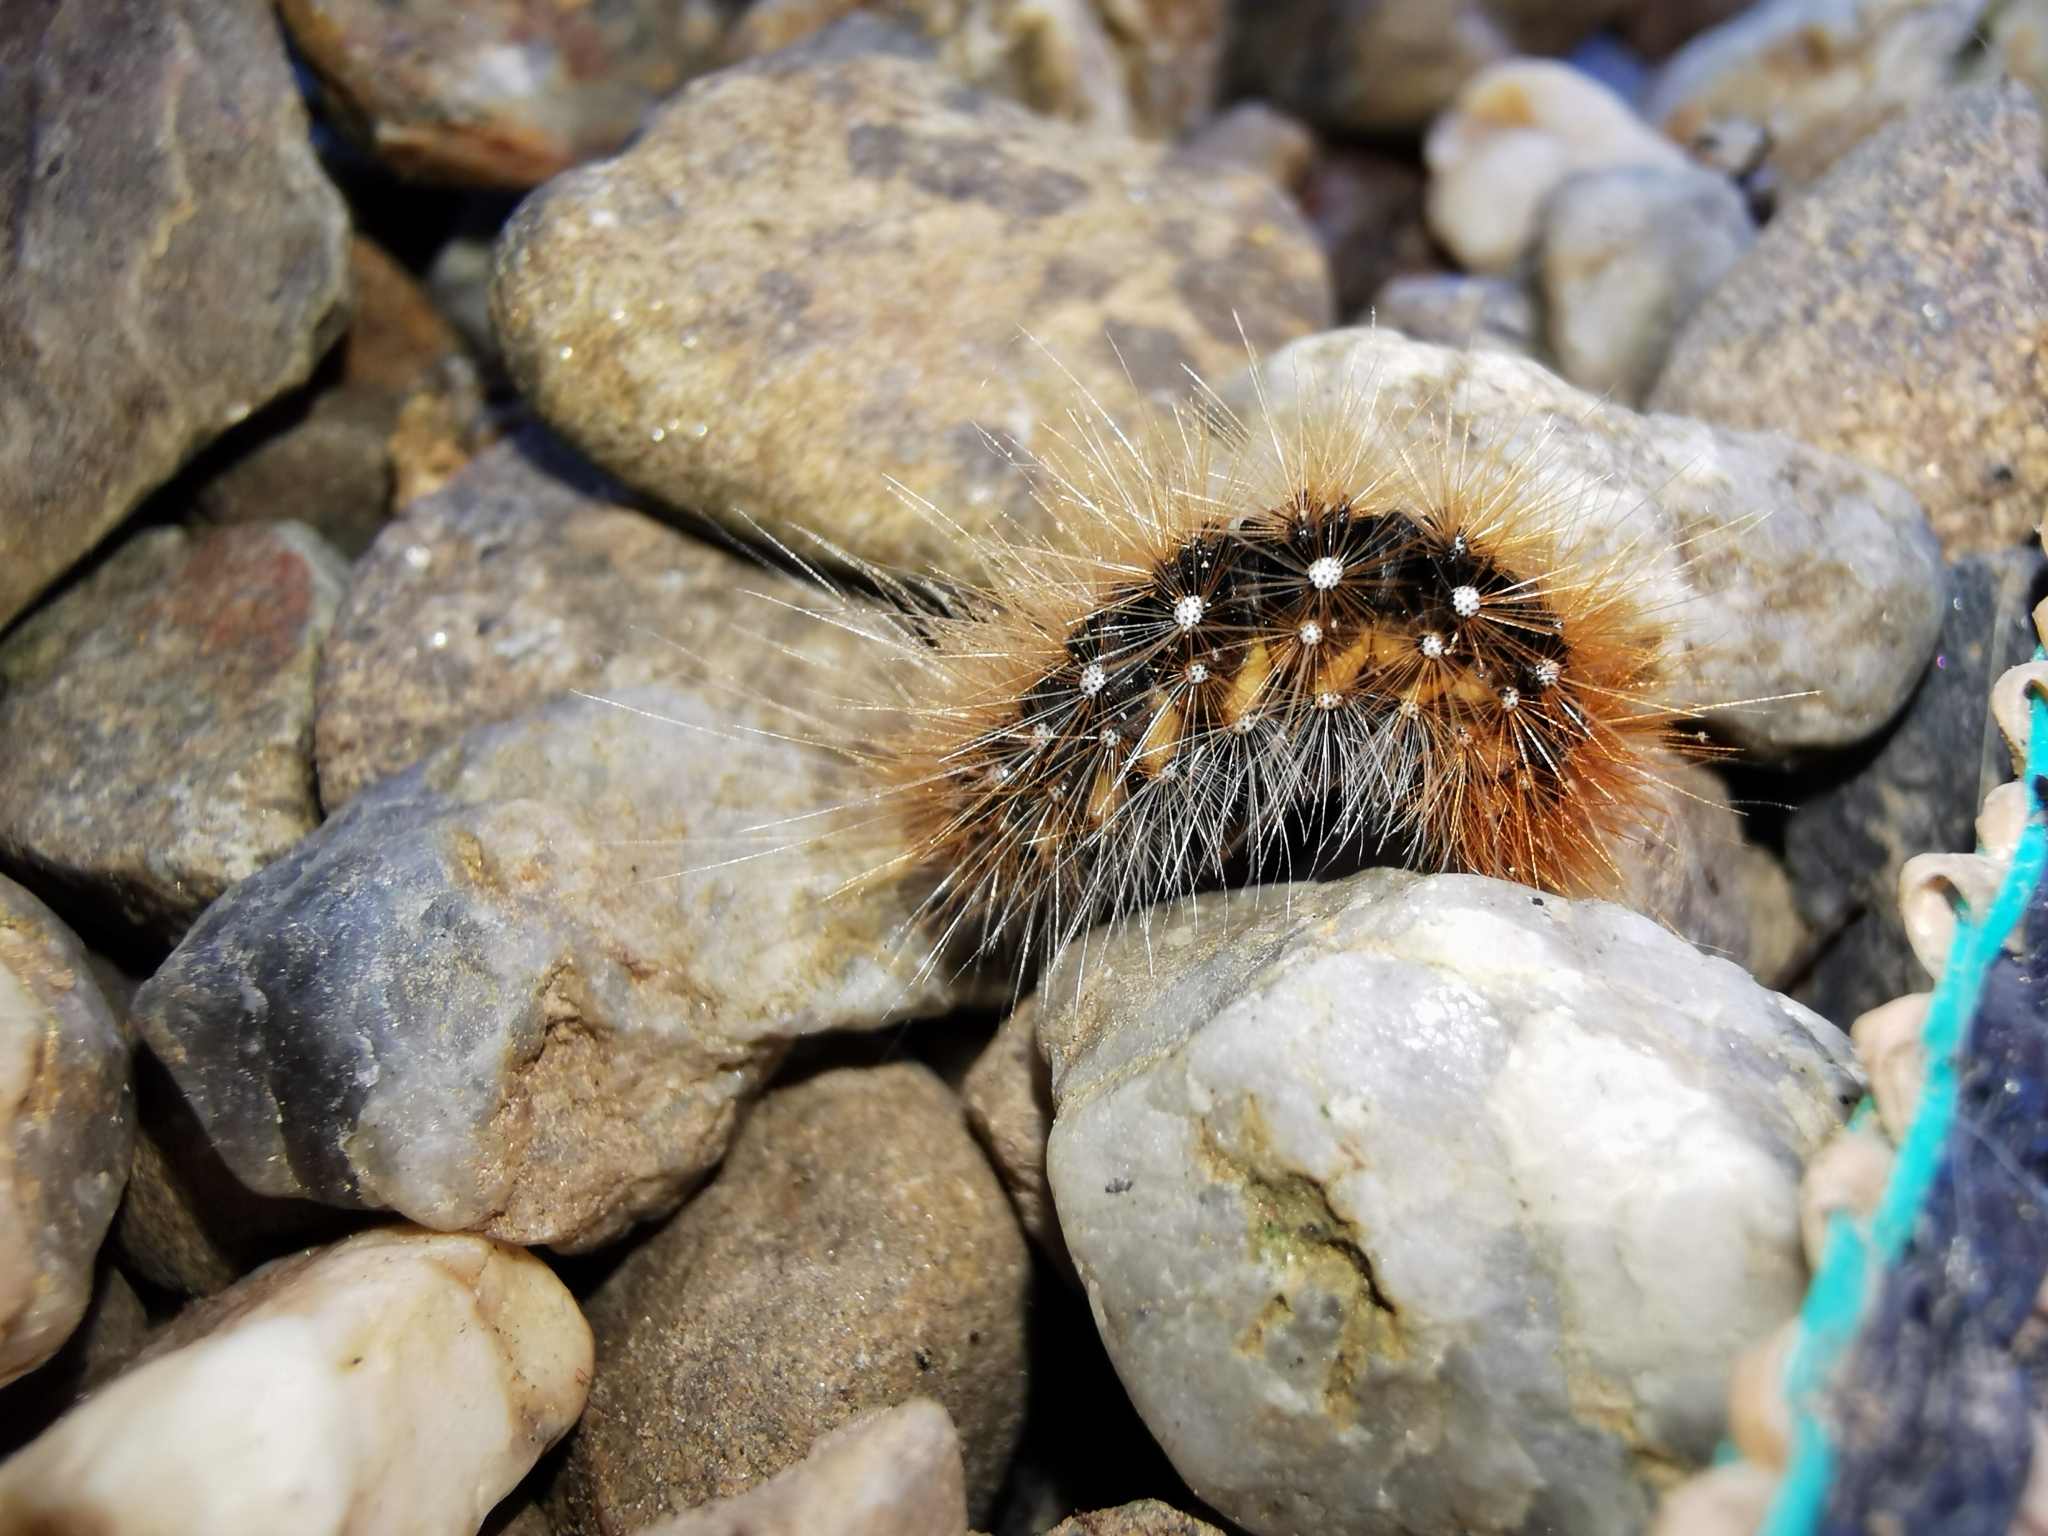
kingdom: Animalia
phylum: Arthropoda
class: Insecta
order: Lepidoptera
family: Erebidae
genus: Arctia
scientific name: Arctia caja
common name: Garden tiger
